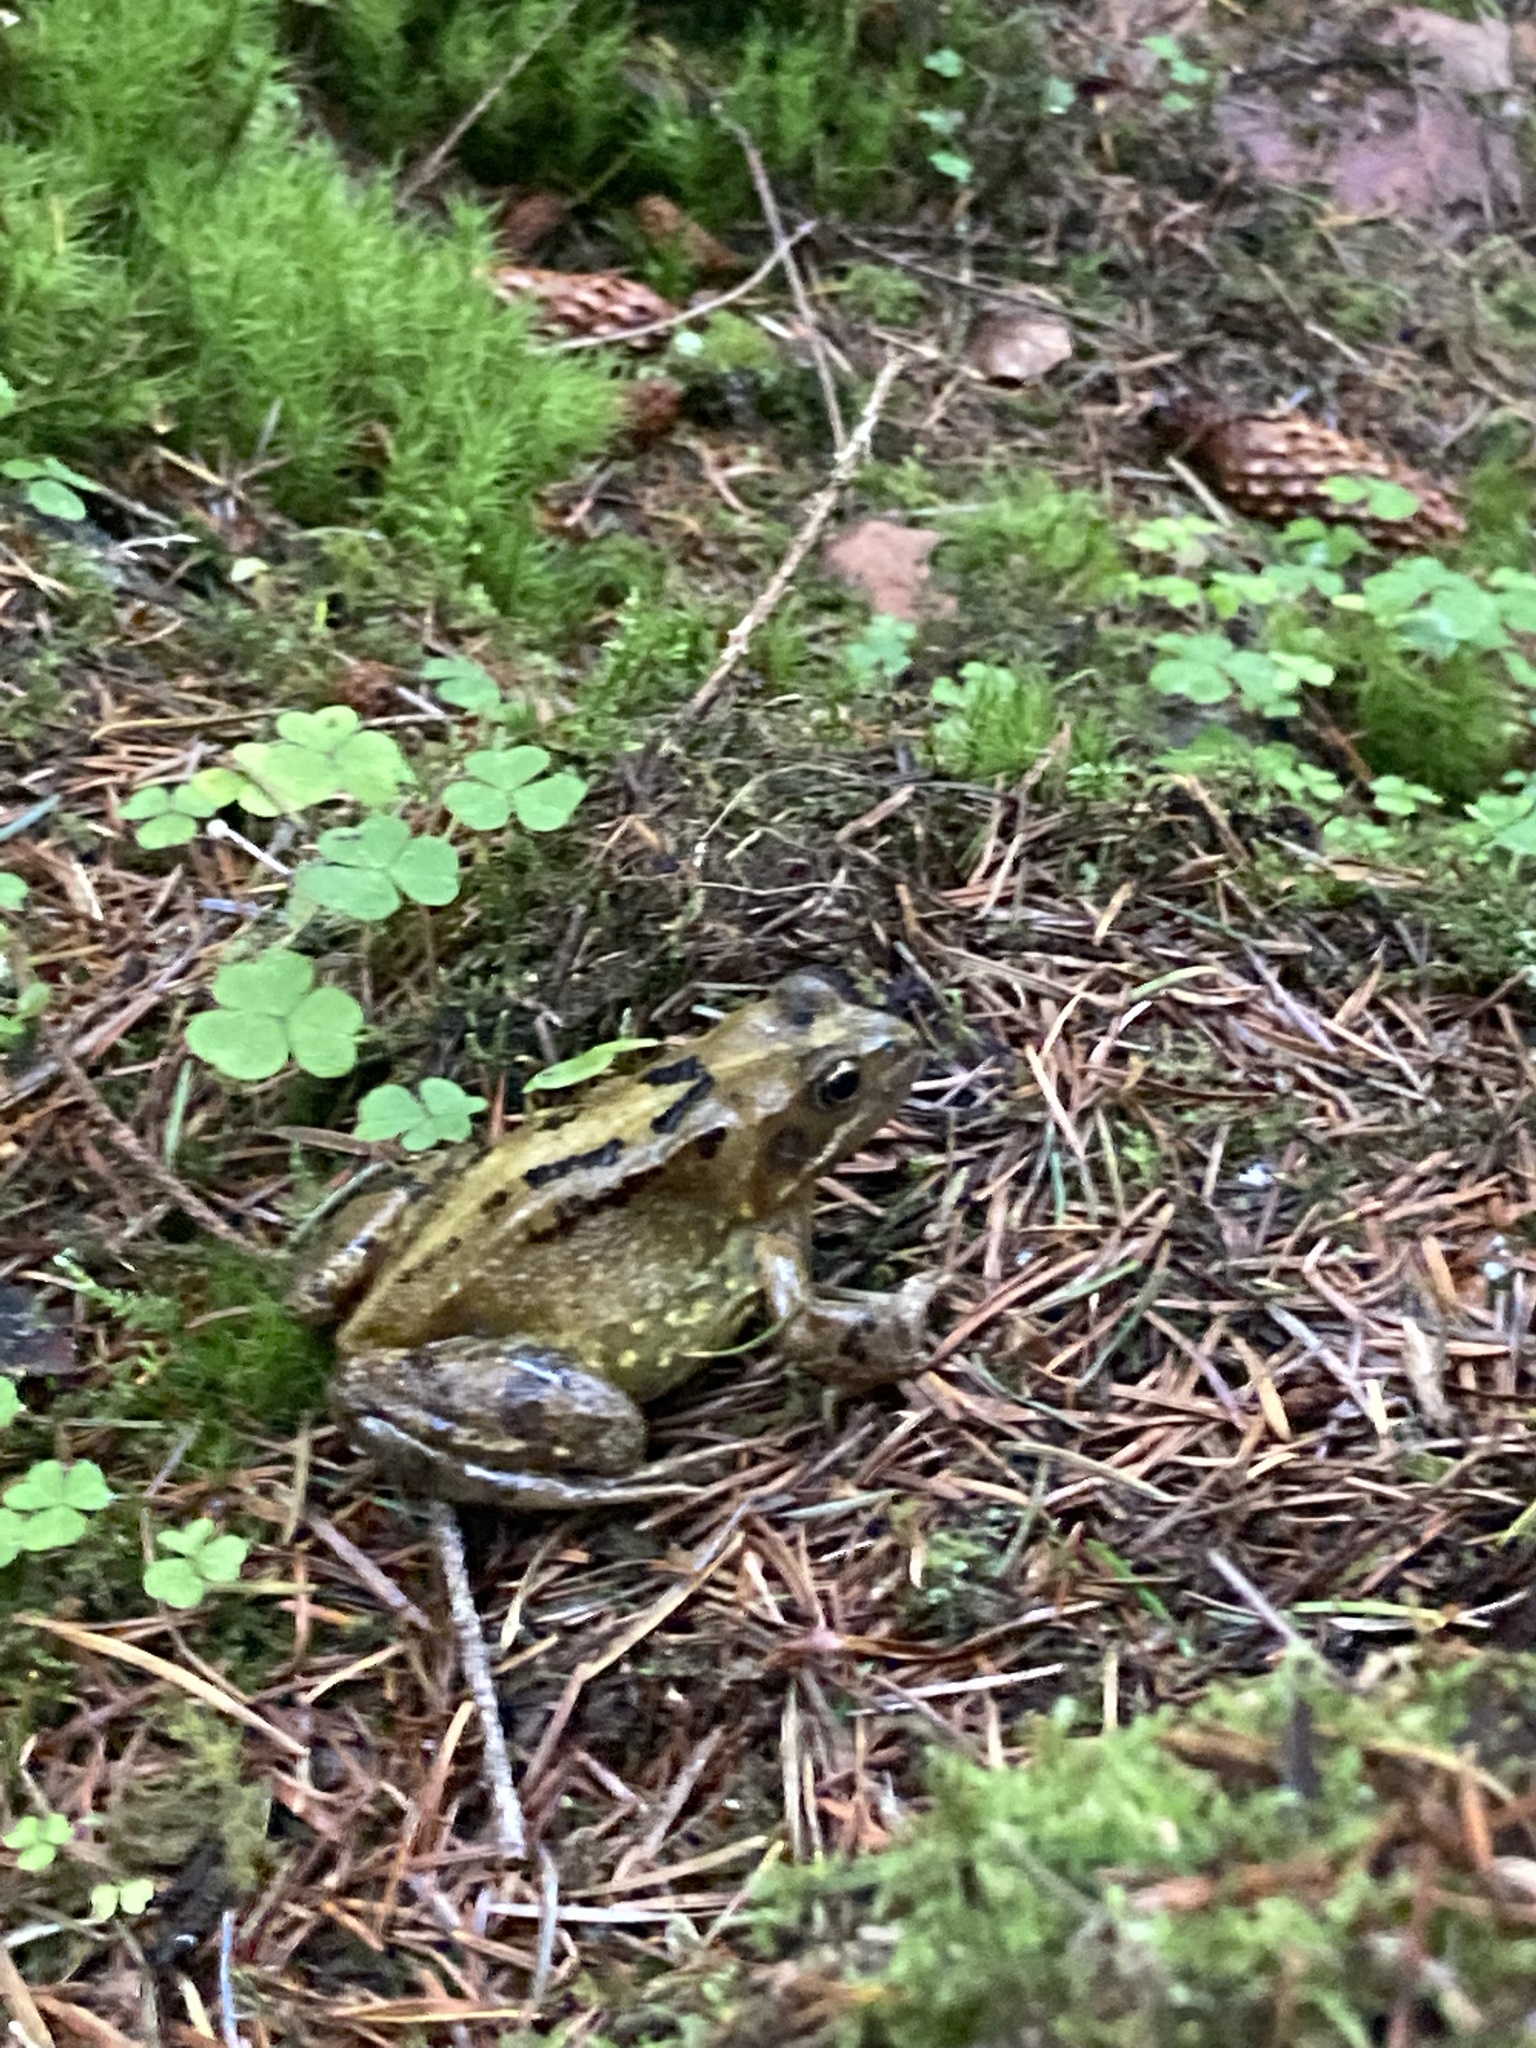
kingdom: Animalia
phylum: Chordata
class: Amphibia
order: Anura
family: Ranidae
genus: Rana
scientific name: Rana temporaria
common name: Common frog
